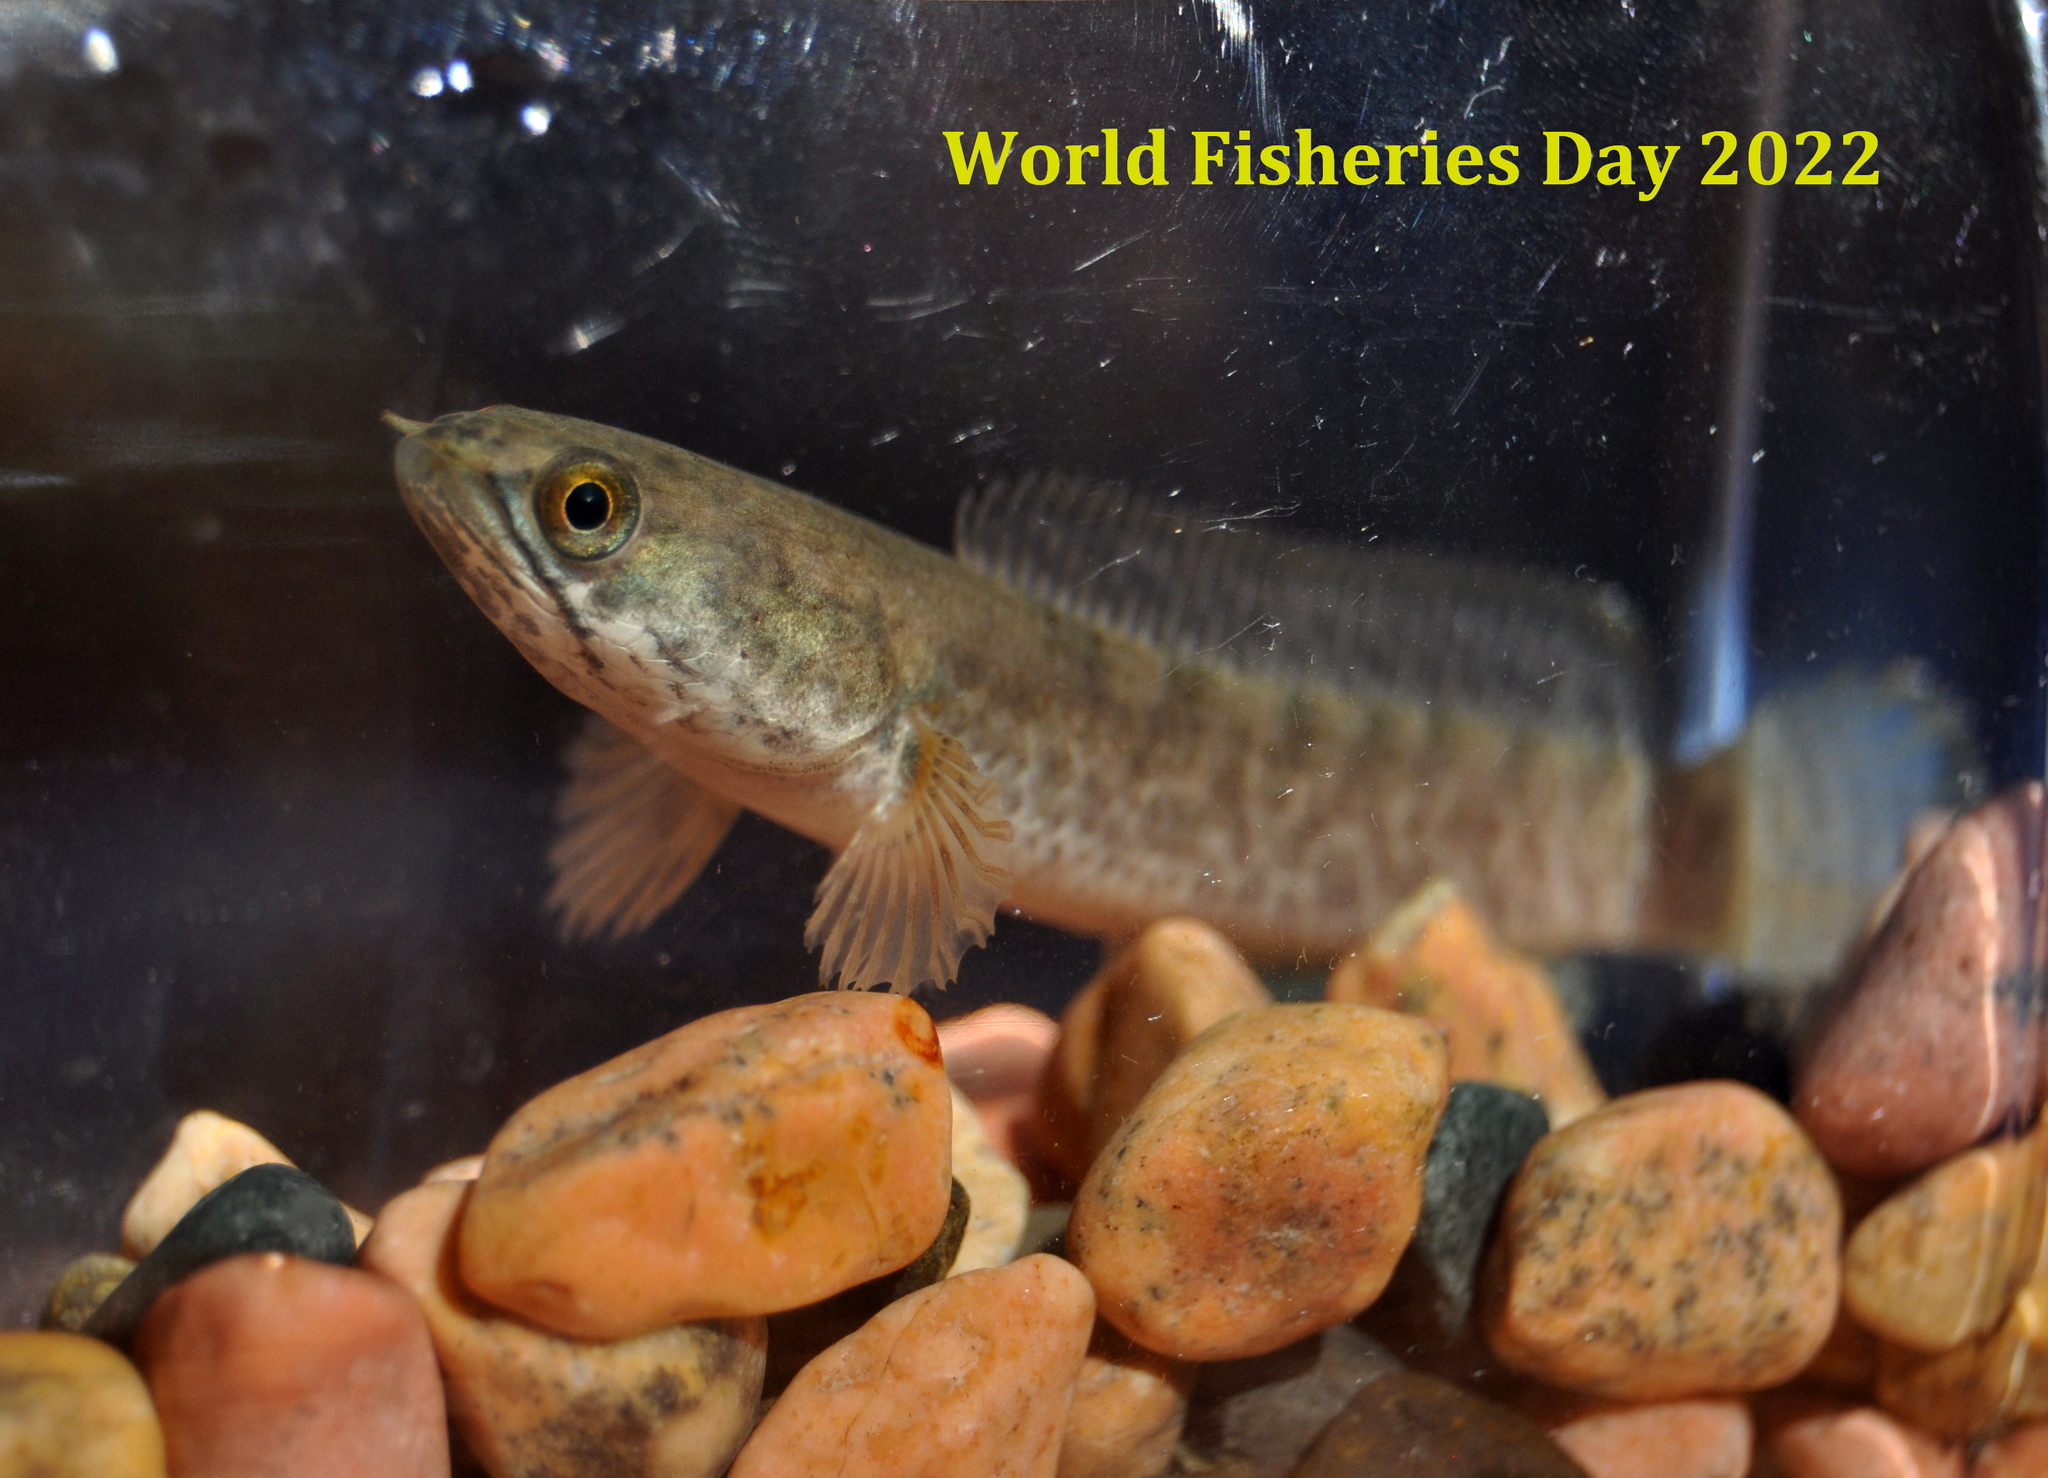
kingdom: Animalia
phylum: Chordata
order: Perciformes
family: Channidae
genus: Channa
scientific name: Channa gachua
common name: Dwarf snakehead
